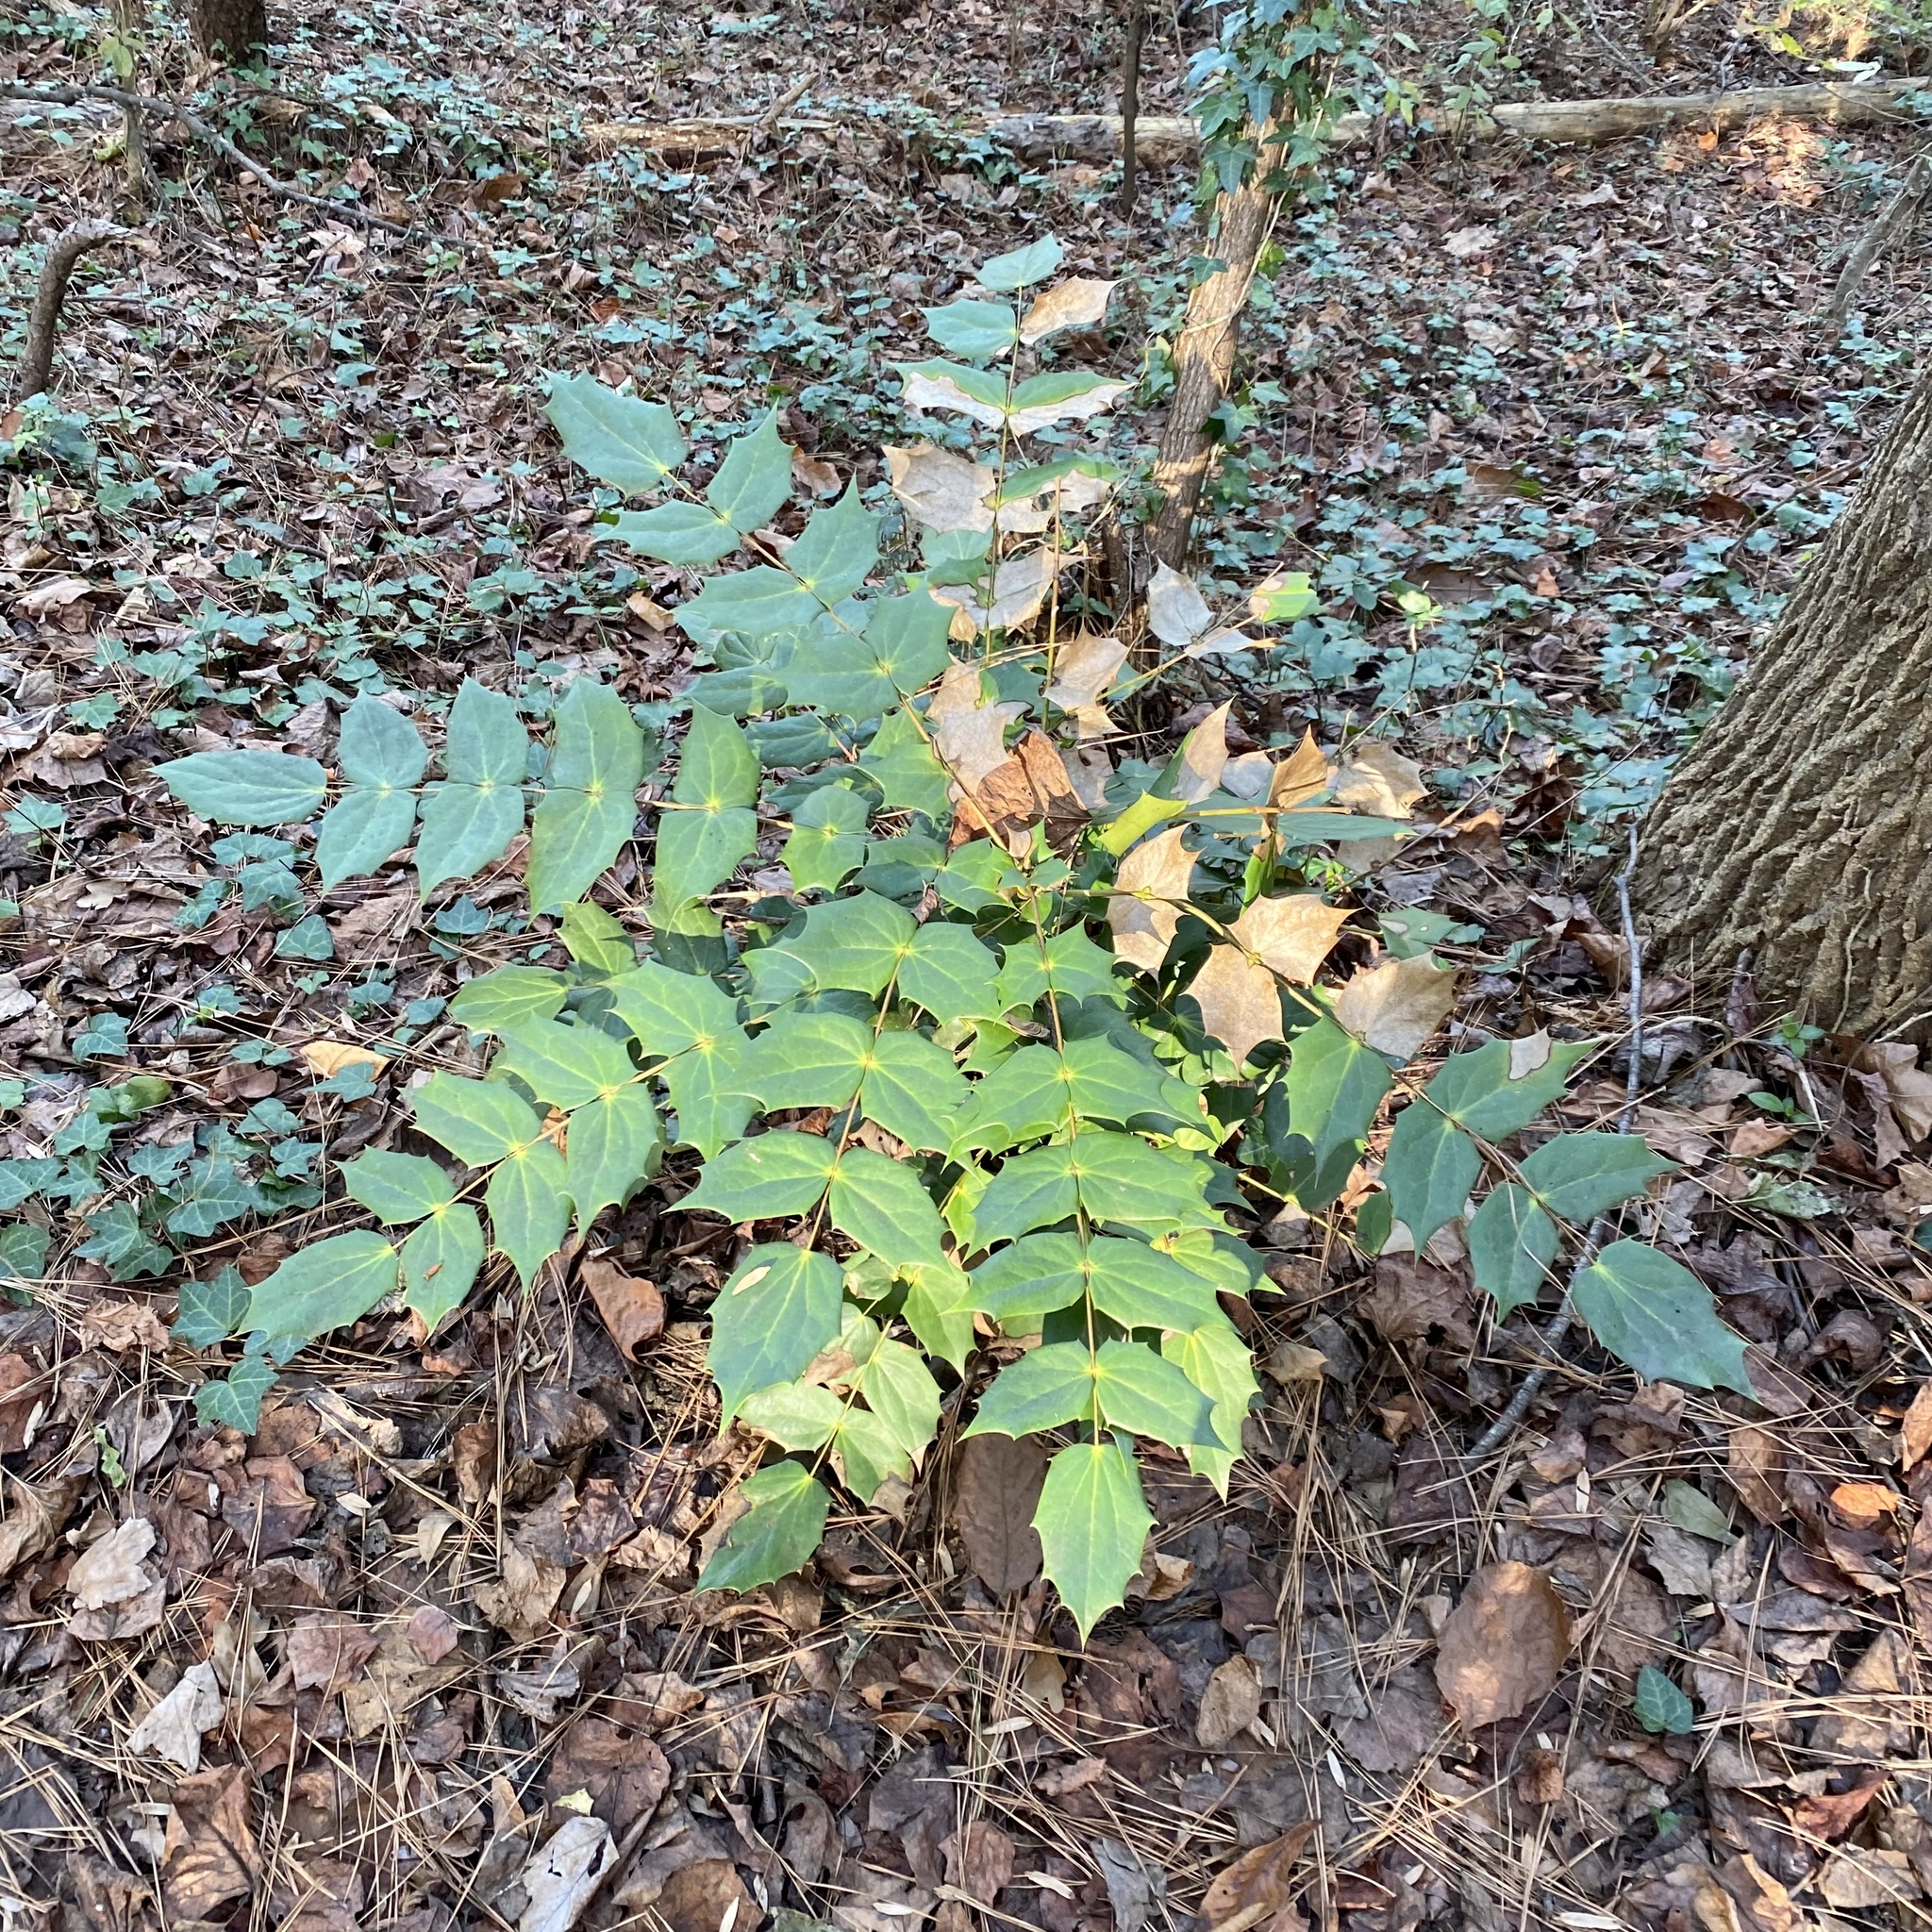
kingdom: Plantae
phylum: Tracheophyta
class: Magnoliopsida
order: Ranunculales
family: Berberidaceae
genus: Mahonia
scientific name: Mahonia bealei
